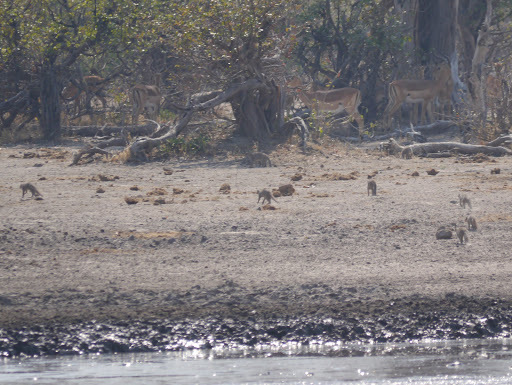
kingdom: Animalia
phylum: Chordata
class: Mammalia
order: Carnivora
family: Herpestidae
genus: Mungos
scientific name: Mungos mungo
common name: Banded mongoose
